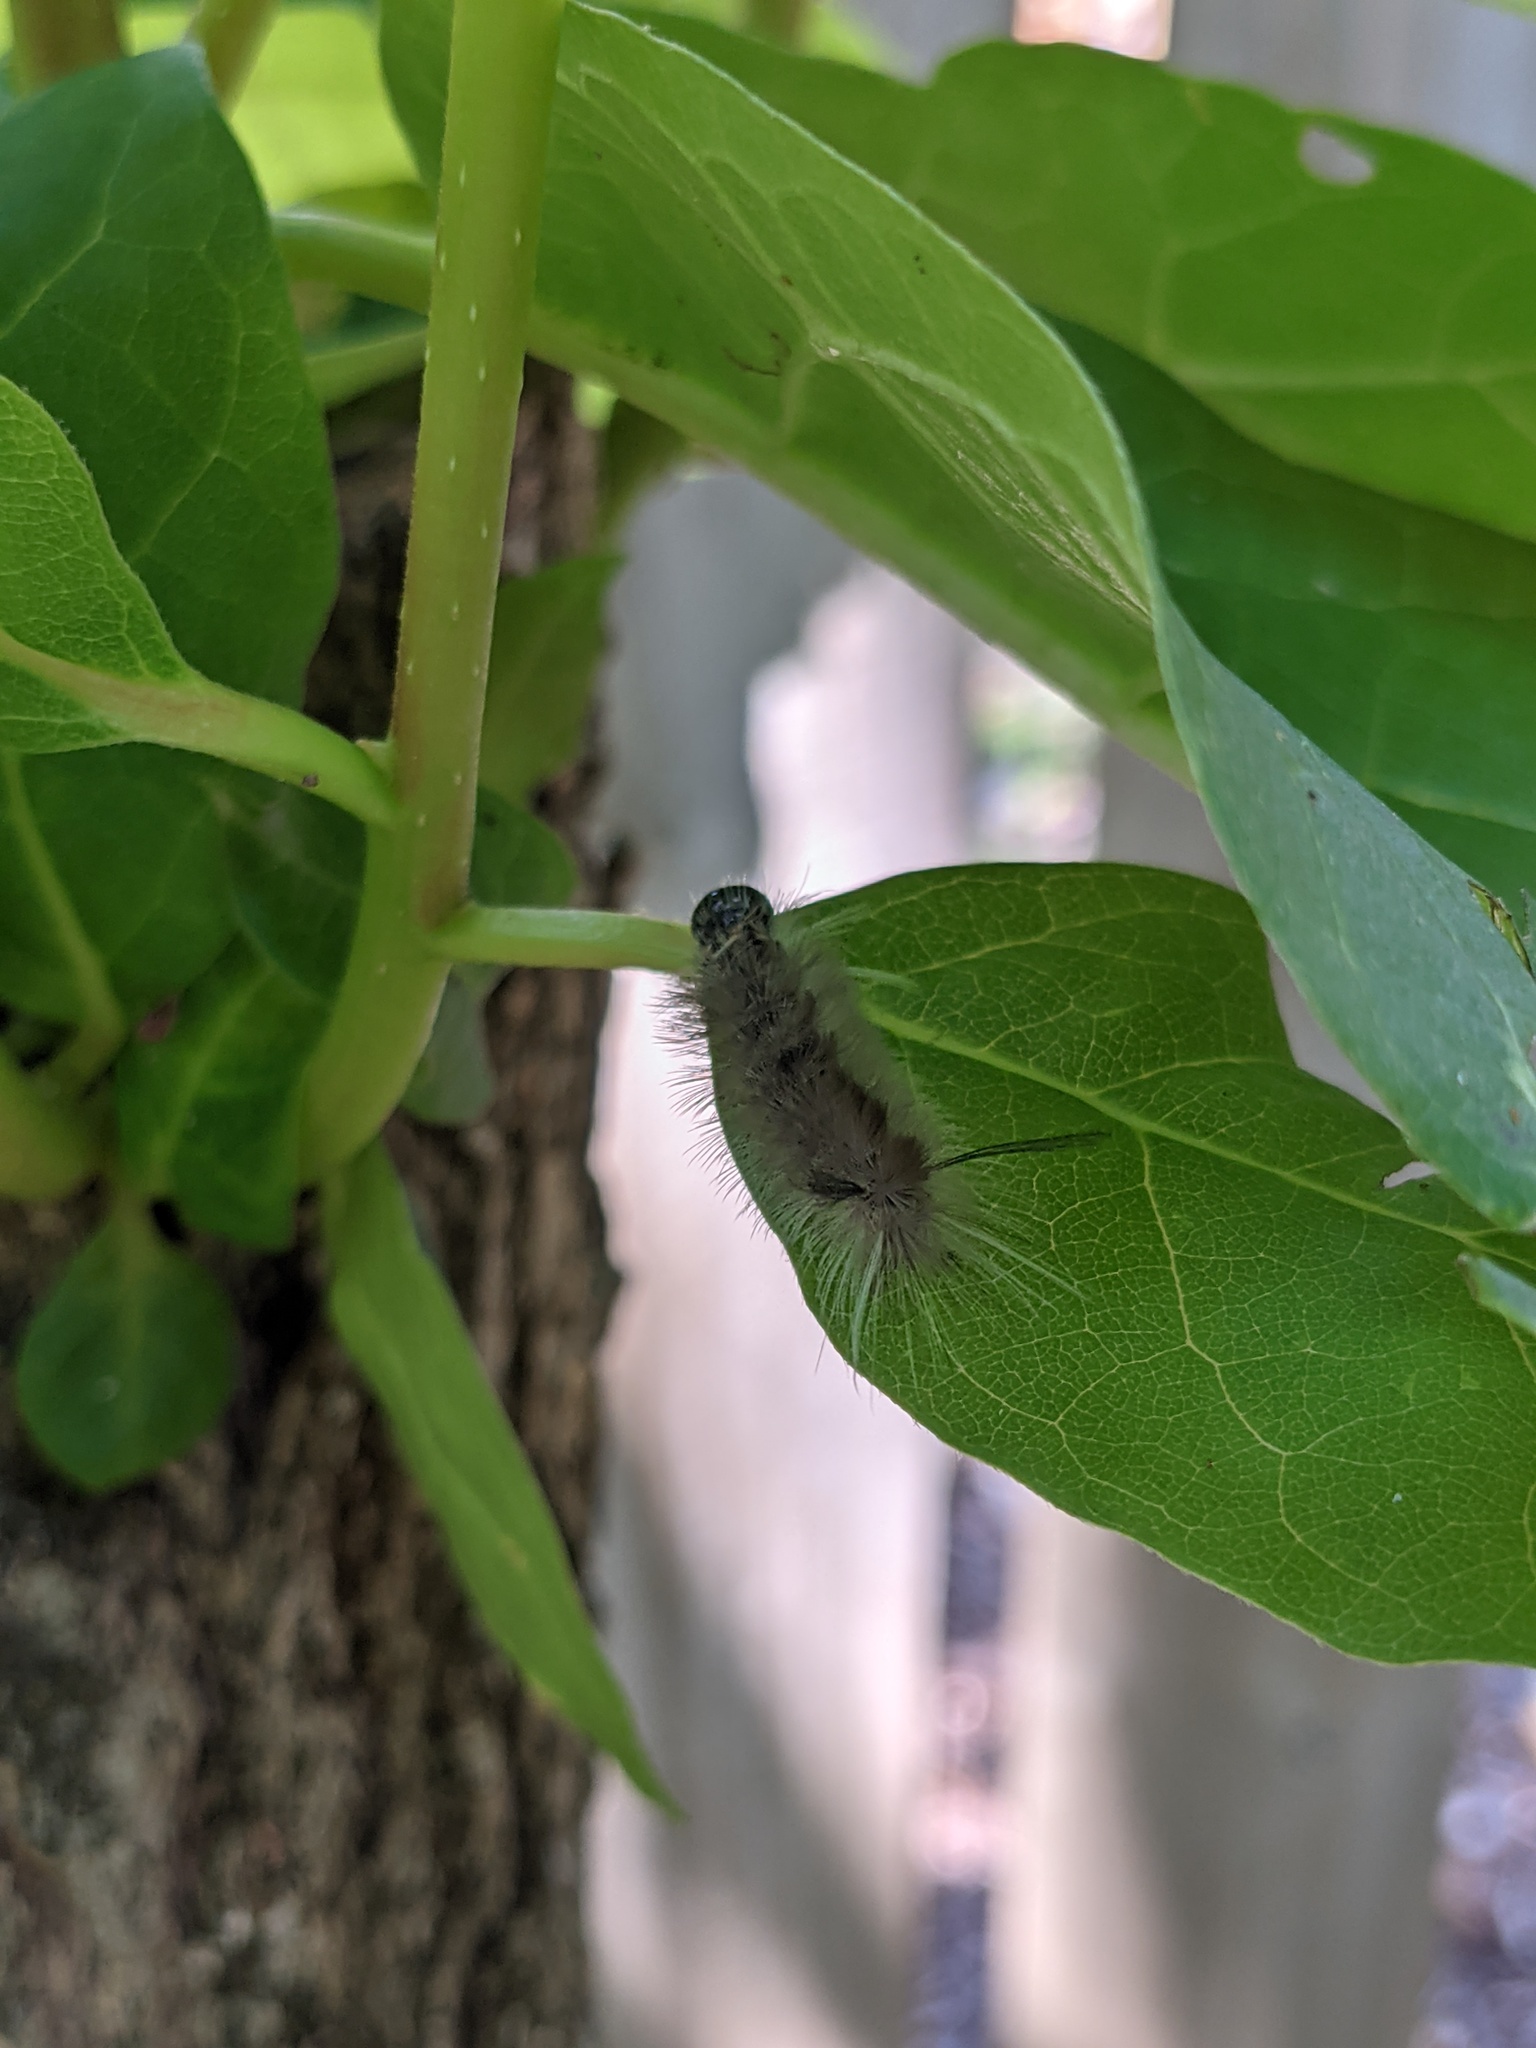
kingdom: Animalia
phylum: Arthropoda
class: Insecta
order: Lepidoptera
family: Erebidae
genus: Halysidota
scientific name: Halysidota tessellaris
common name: Banded tussock moth
